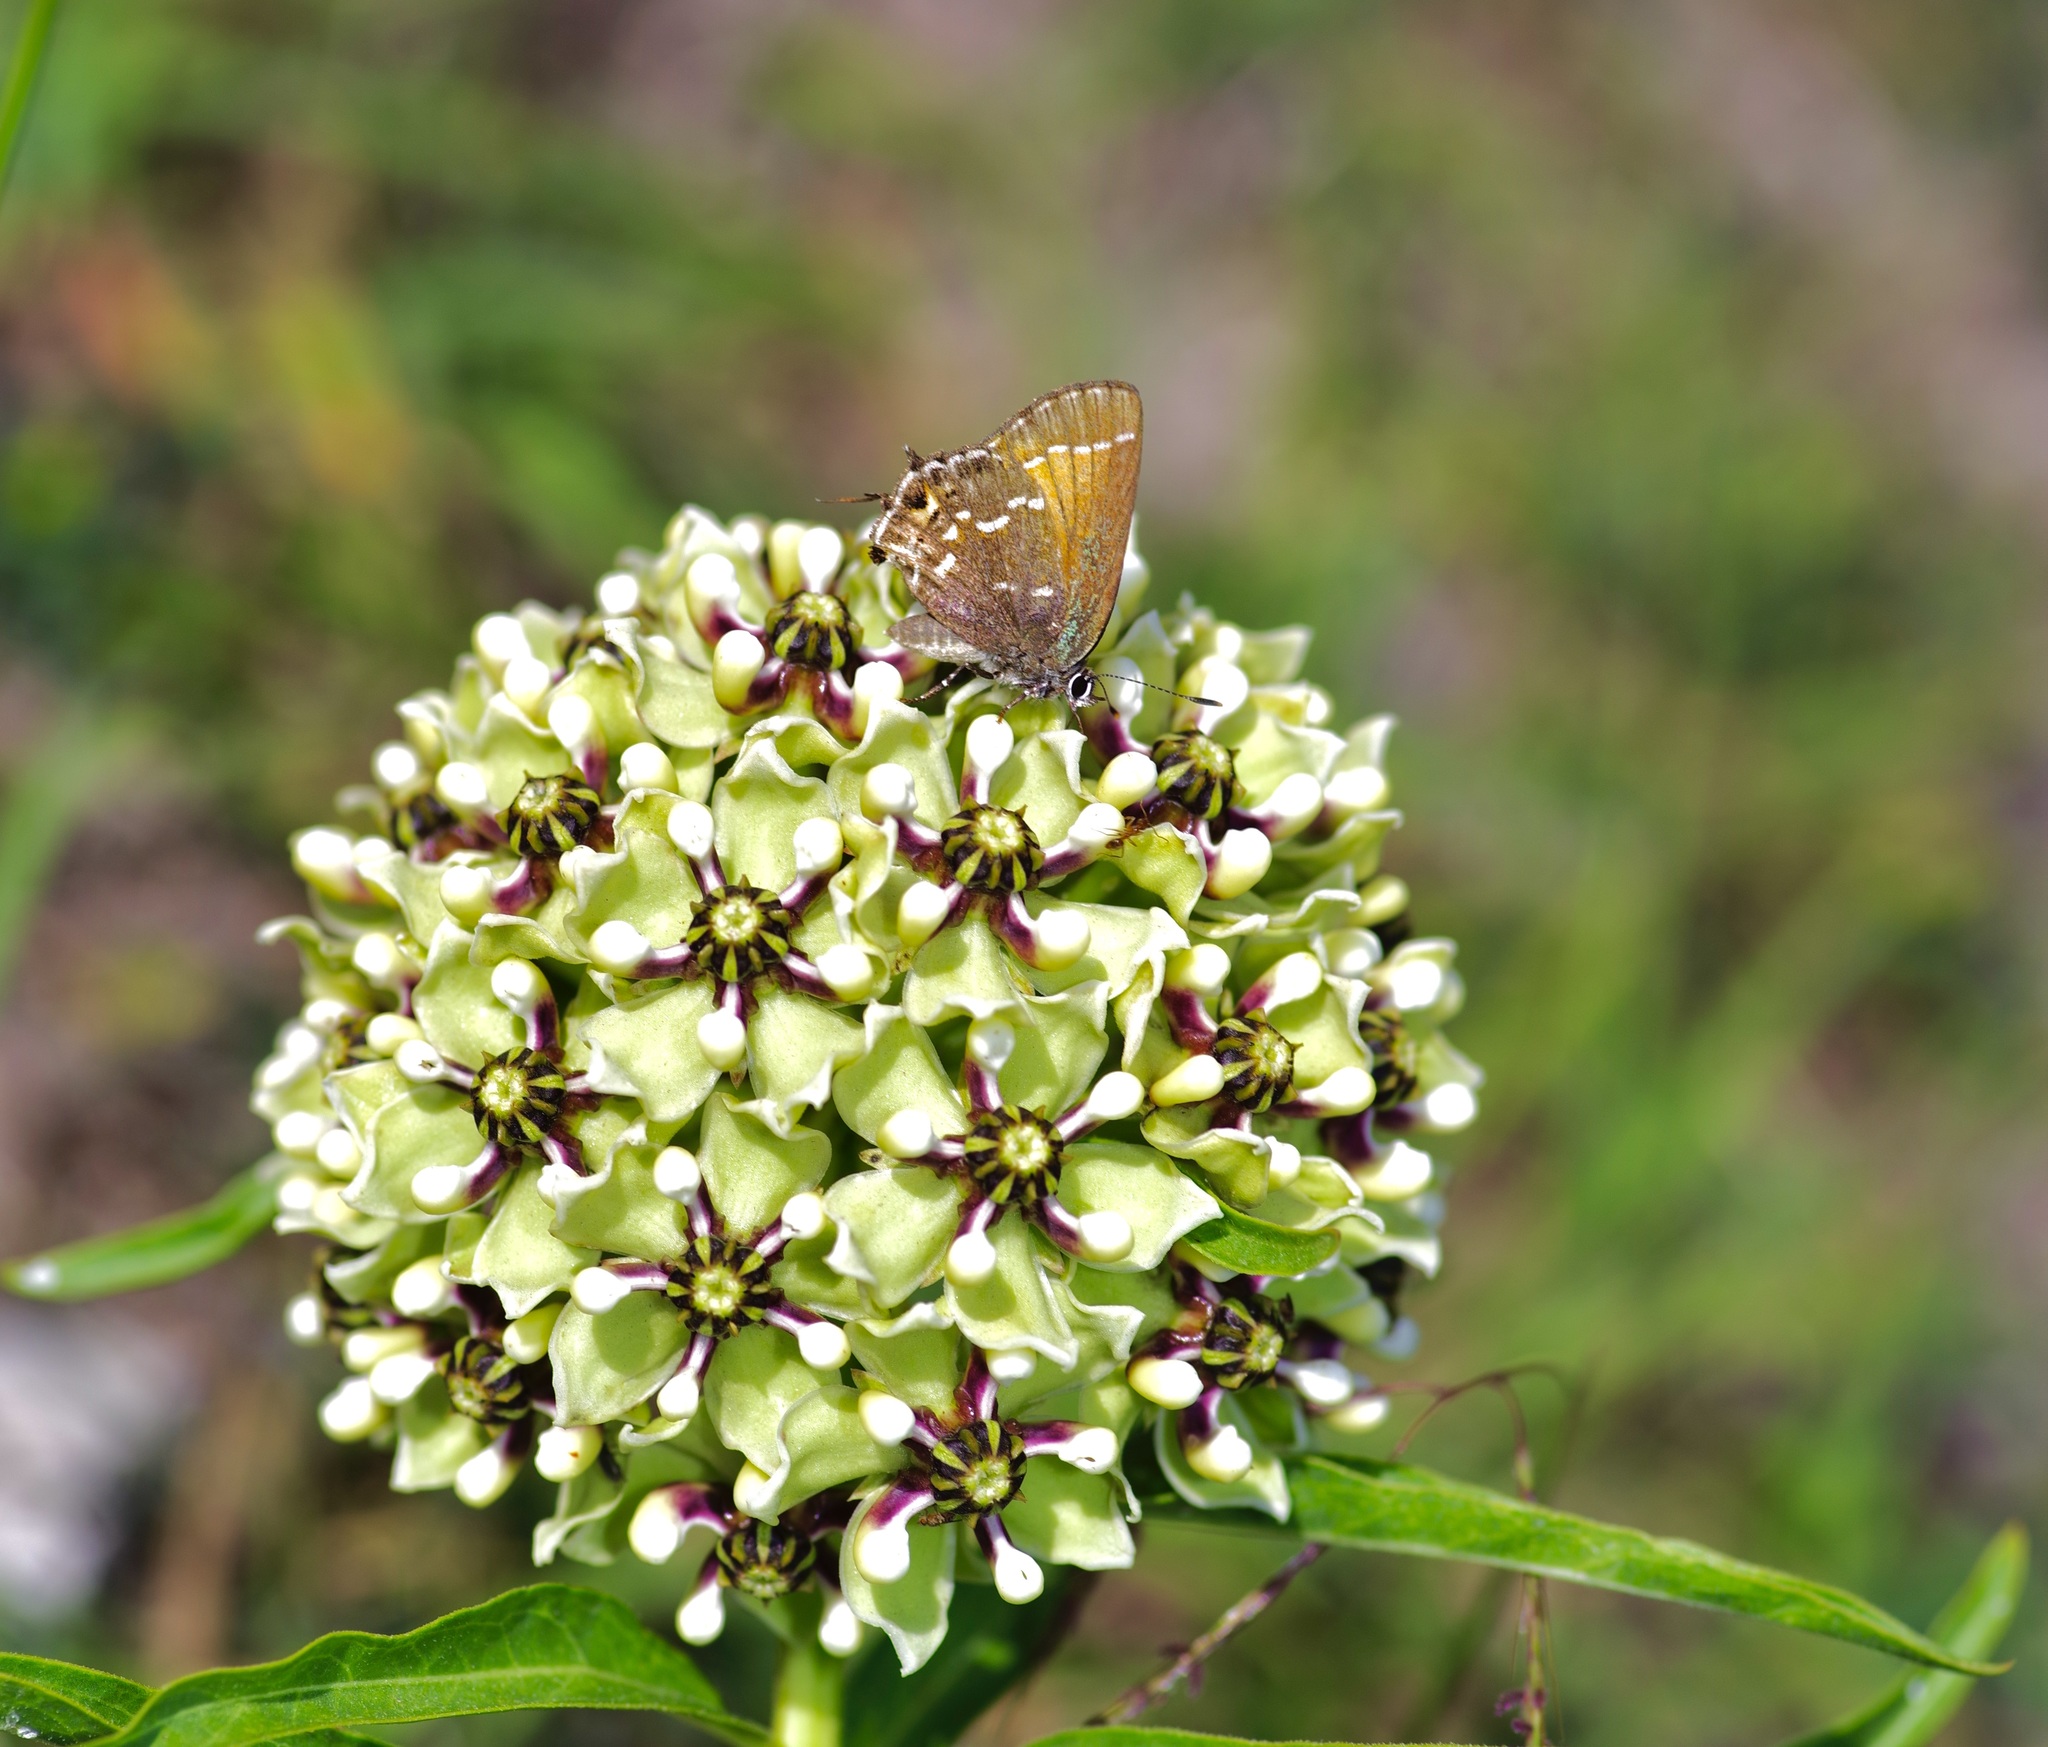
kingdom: Animalia
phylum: Arthropoda
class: Insecta
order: Lepidoptera
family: Lycaenidae
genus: Mitoura
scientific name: Mitoura gryneus
